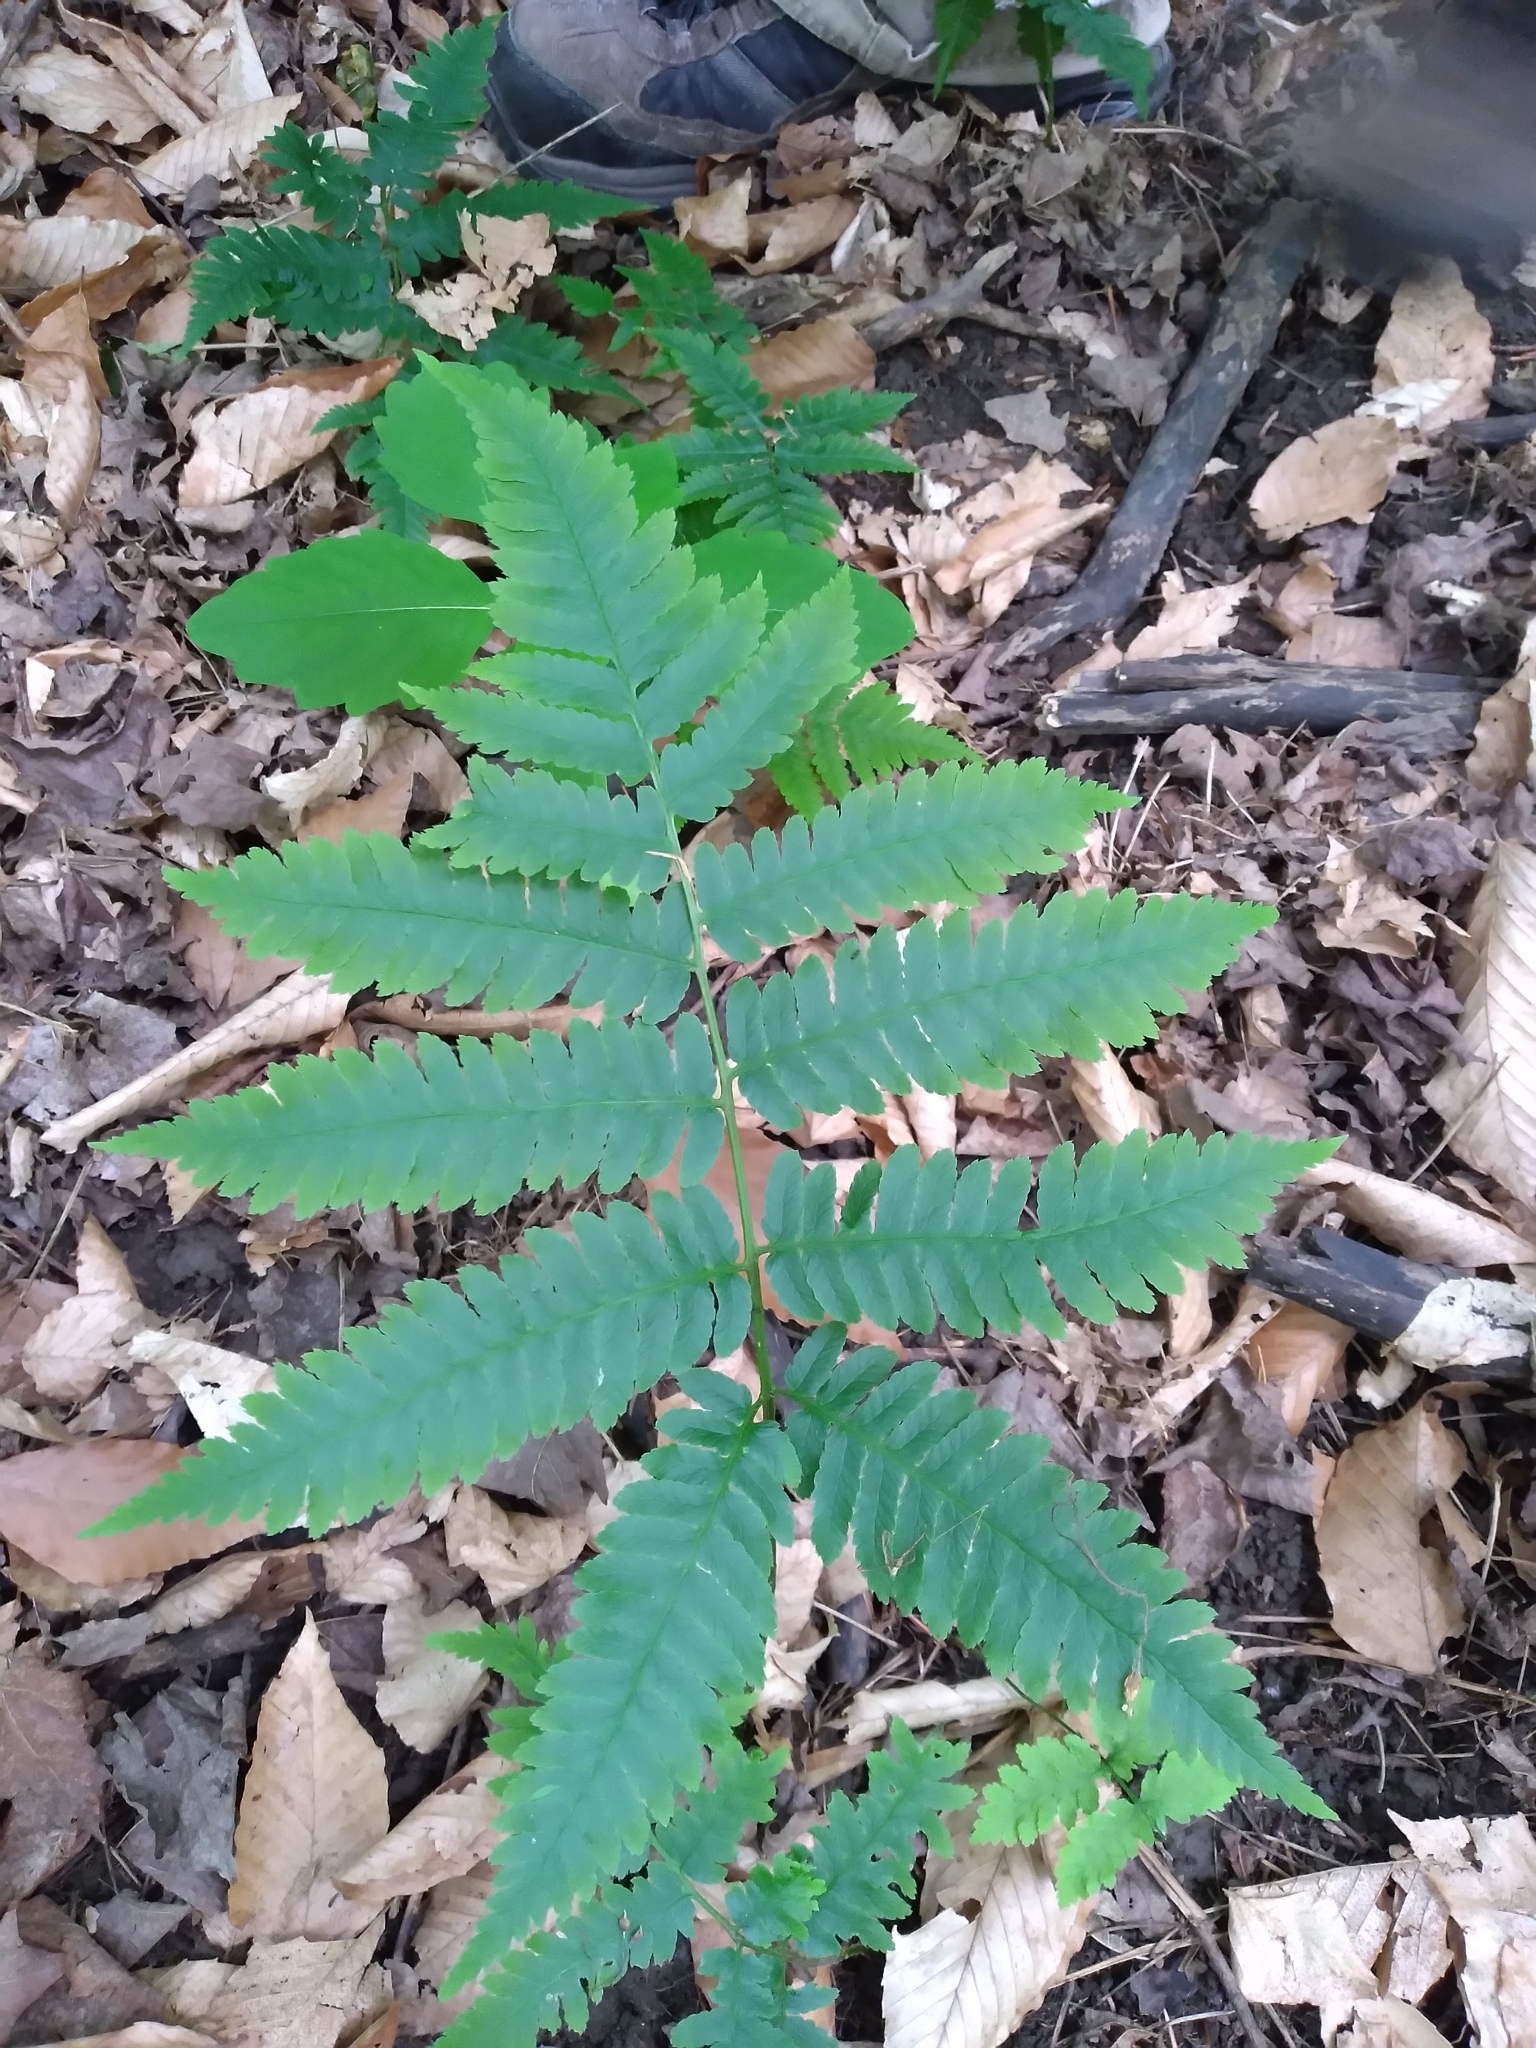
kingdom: Plantae
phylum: Tracheophyta
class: Polypodiopsida
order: Polypodiales
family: Dryopteridaceae
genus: Dryopteris
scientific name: Dryopteris goldieana
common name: Goldie's fern
